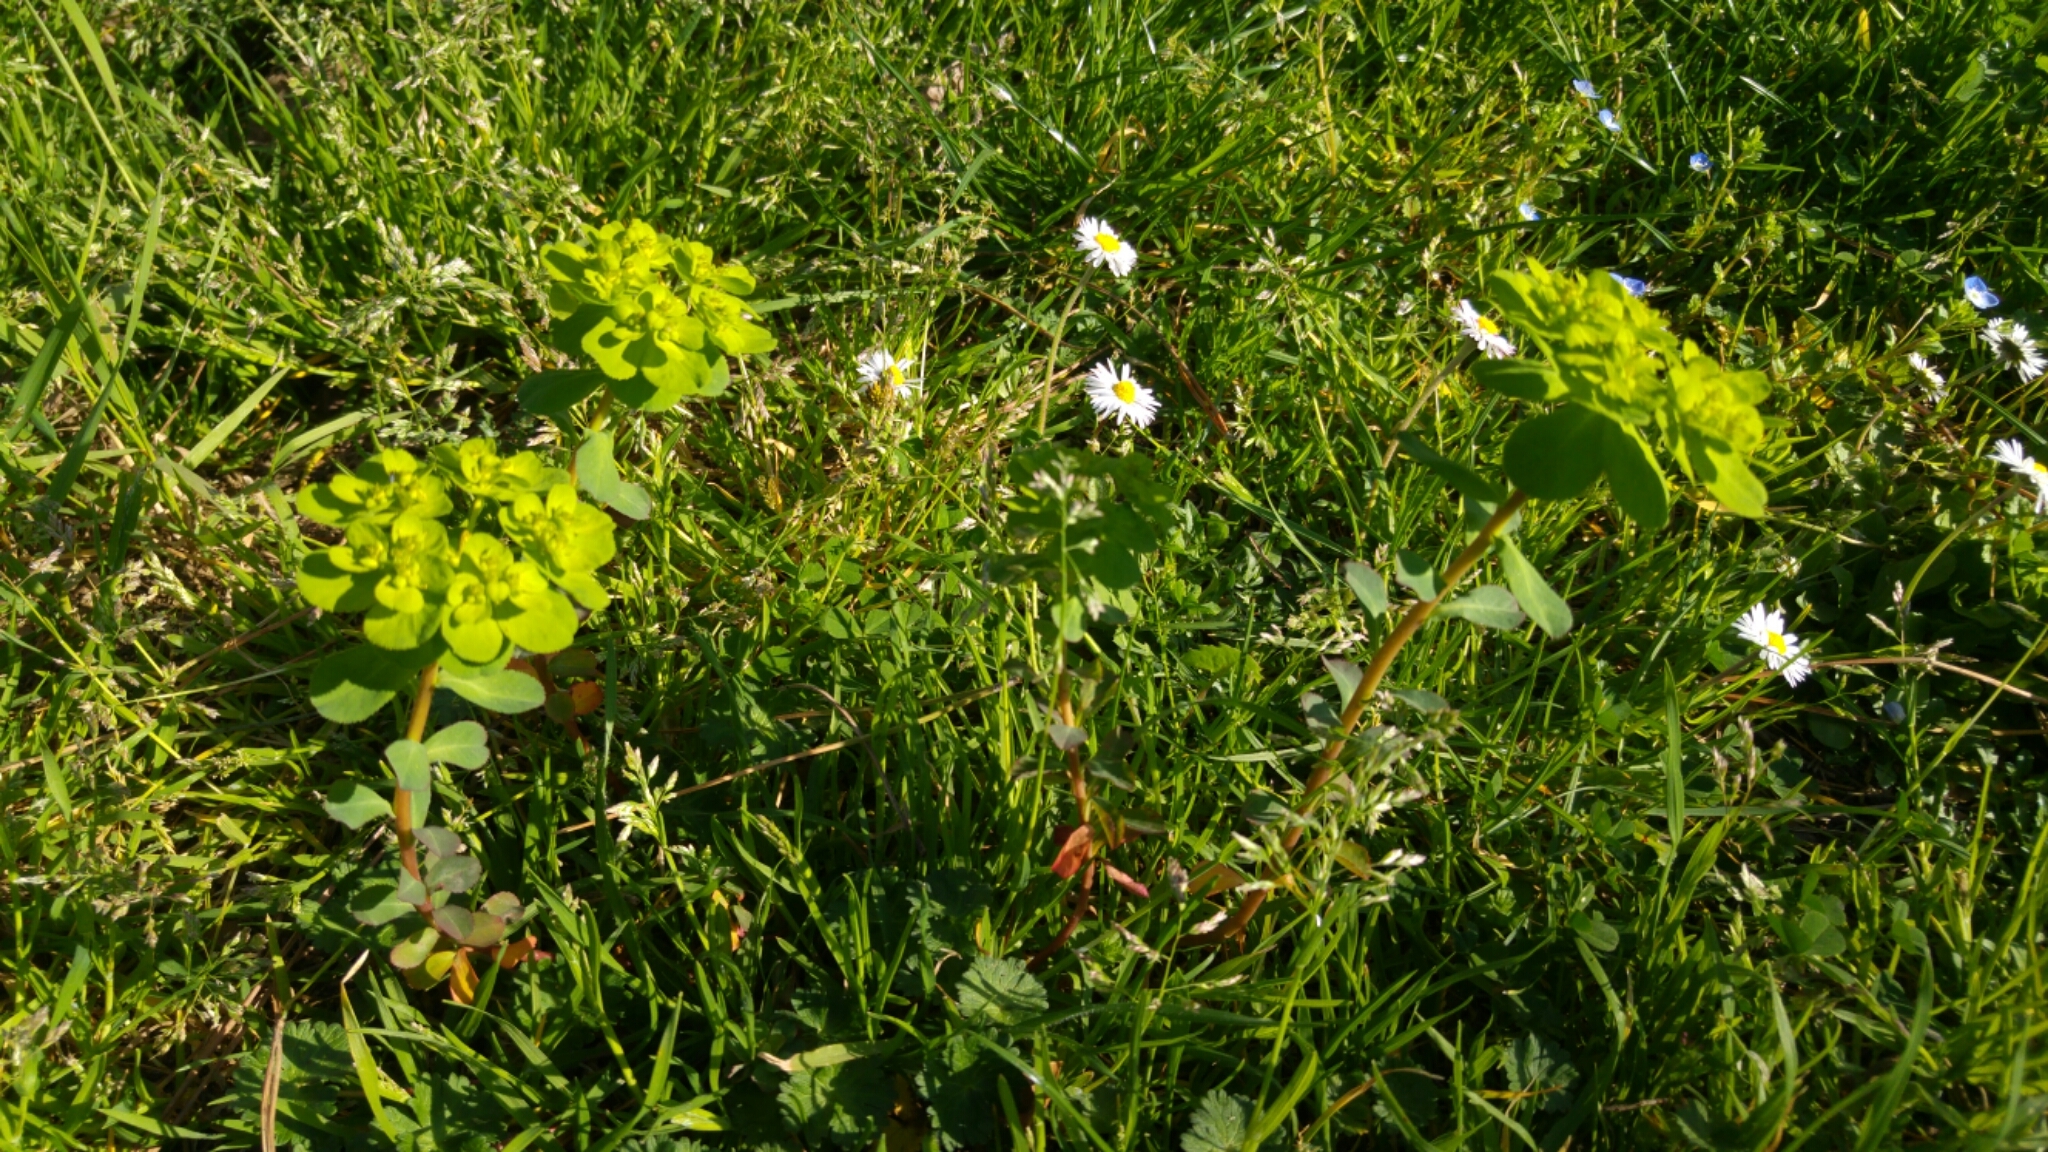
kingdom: Plantae
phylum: Tracheophyta
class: Magnoliopsida
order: Malpighiales
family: Euphorbiaceae
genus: Euphorbia
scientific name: Euphorbia helioscopia
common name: Sun spurge
